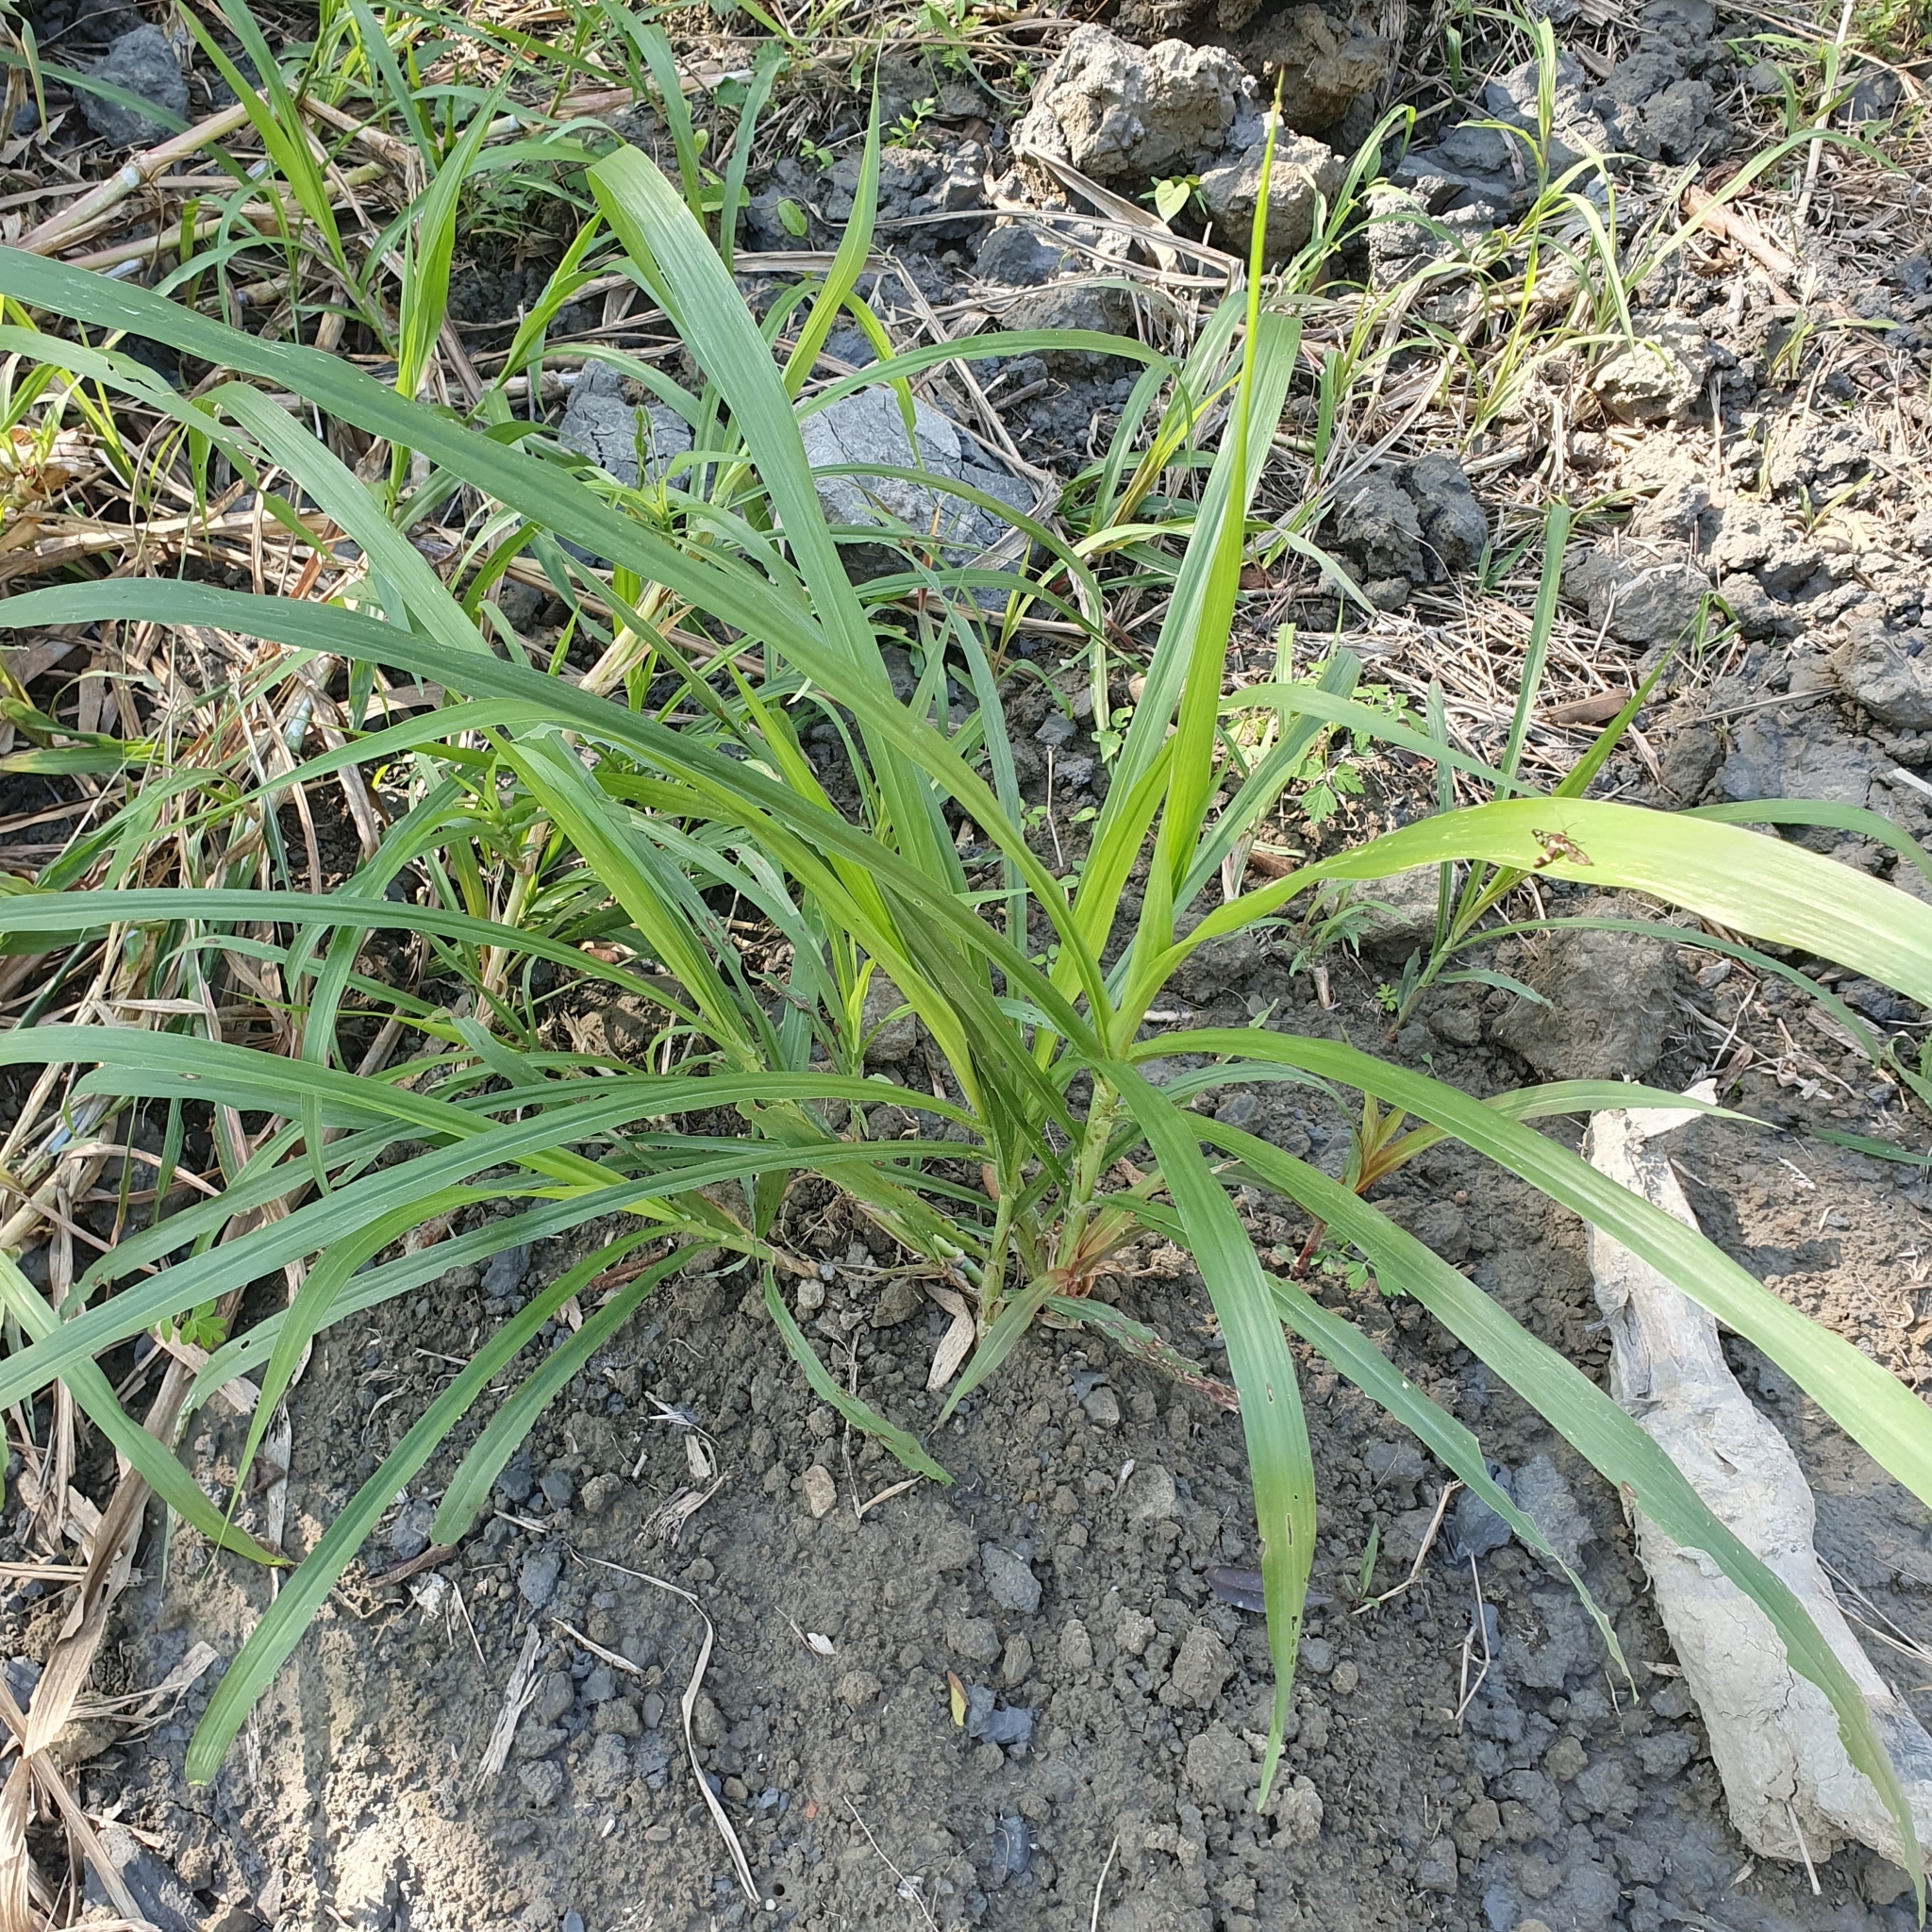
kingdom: Plantae
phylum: Tracheophyta
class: Liliopsida
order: Poales
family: Poaceae
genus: Megathyrsus
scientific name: Megathyrsus maximus
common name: Guineagrass
